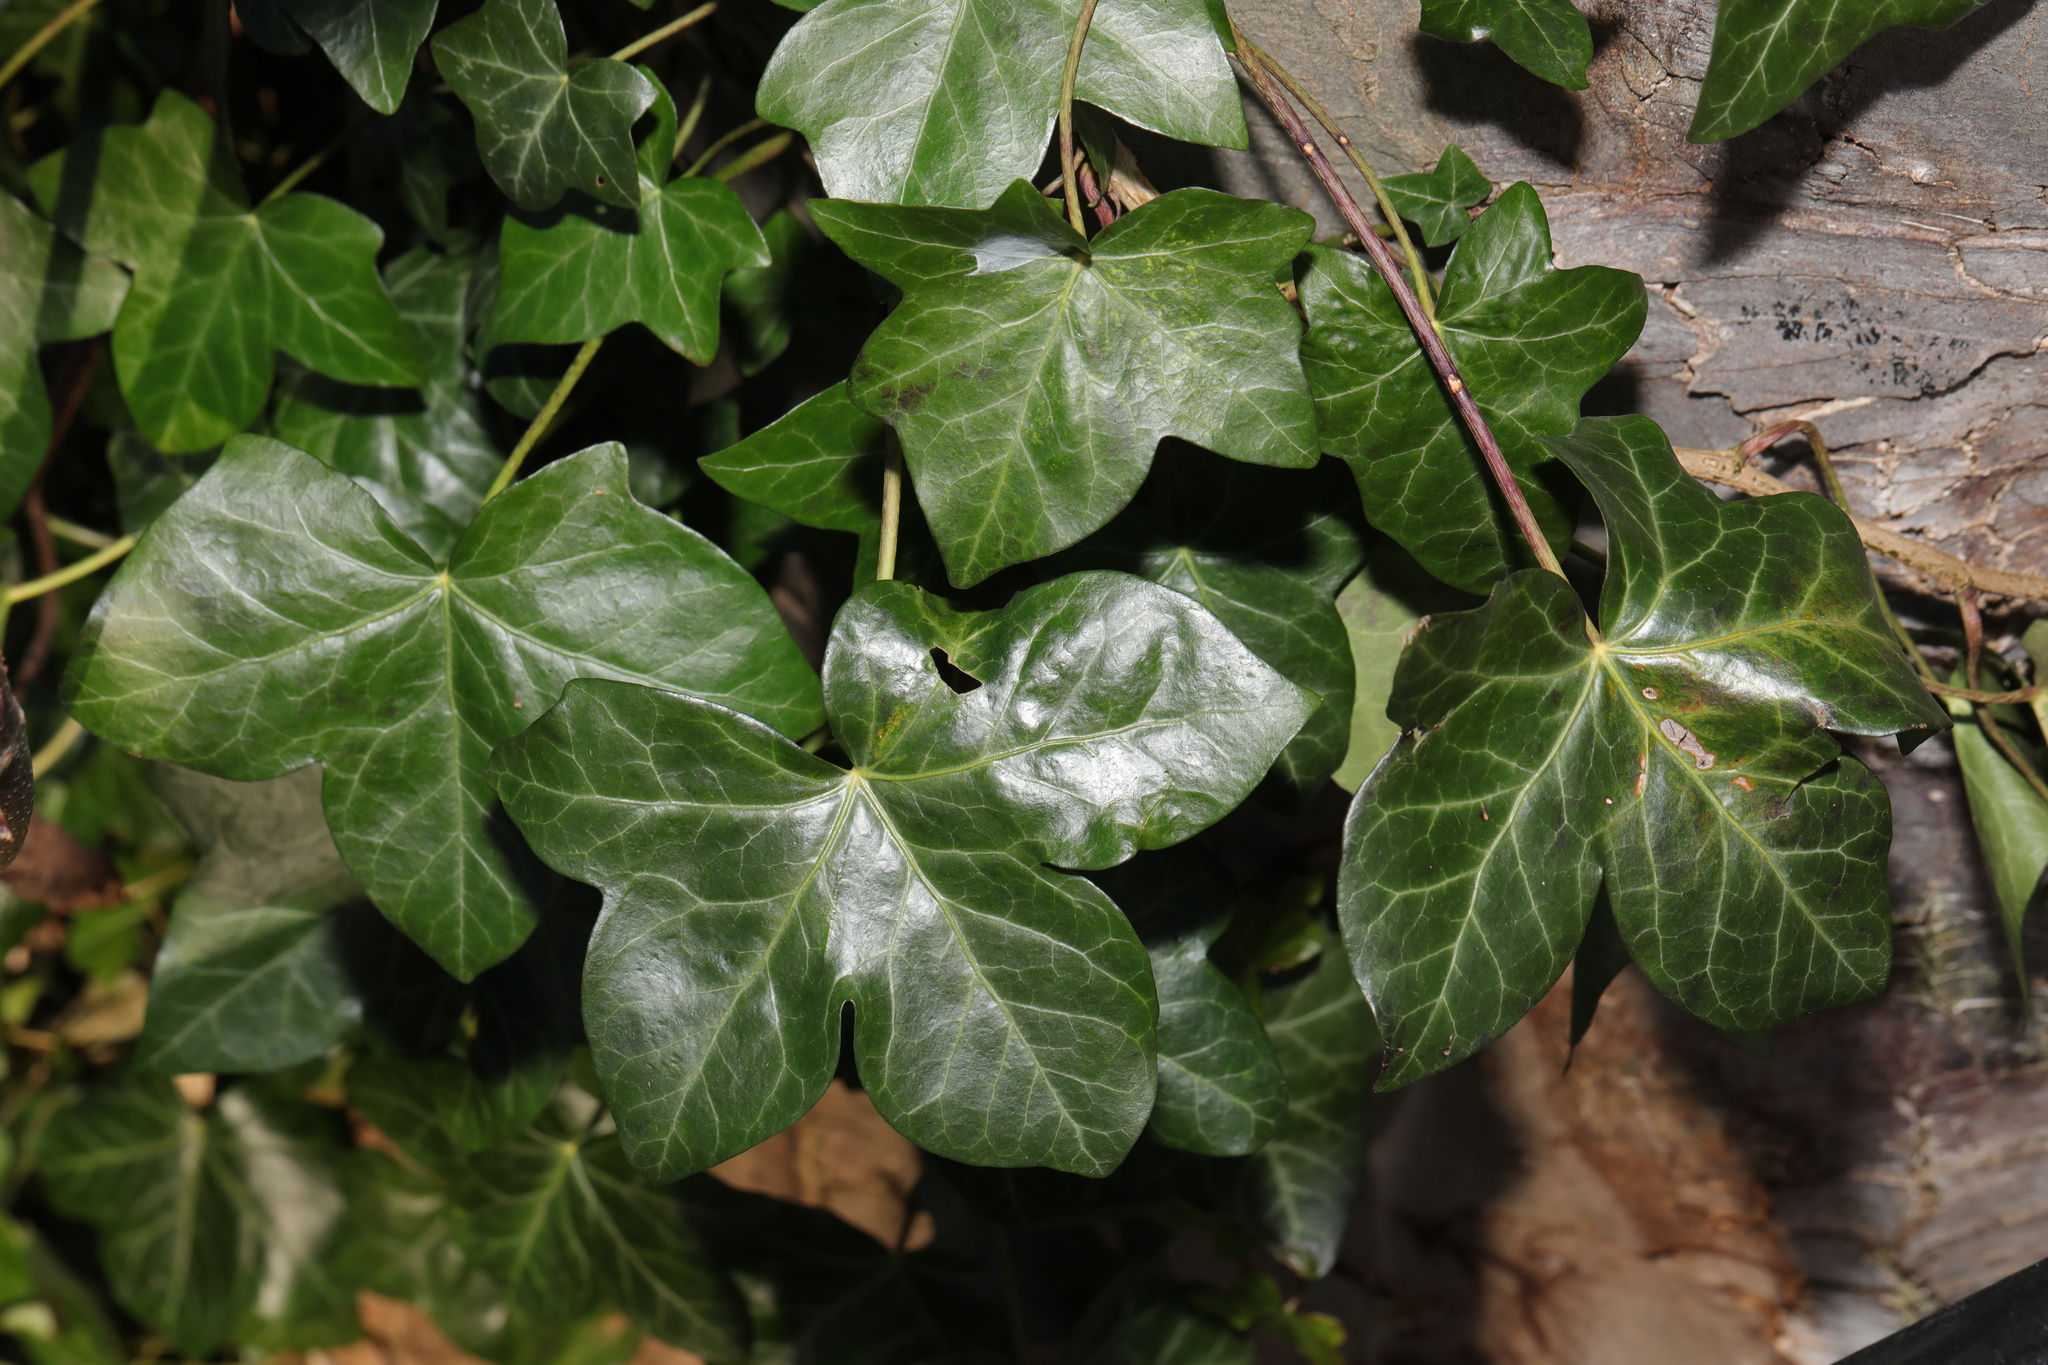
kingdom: Plantae
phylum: Tracheophyta
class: Magnoliopsida
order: Apiales
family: Araliaceae
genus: Hedera
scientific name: Hedera helix
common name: Ivy
